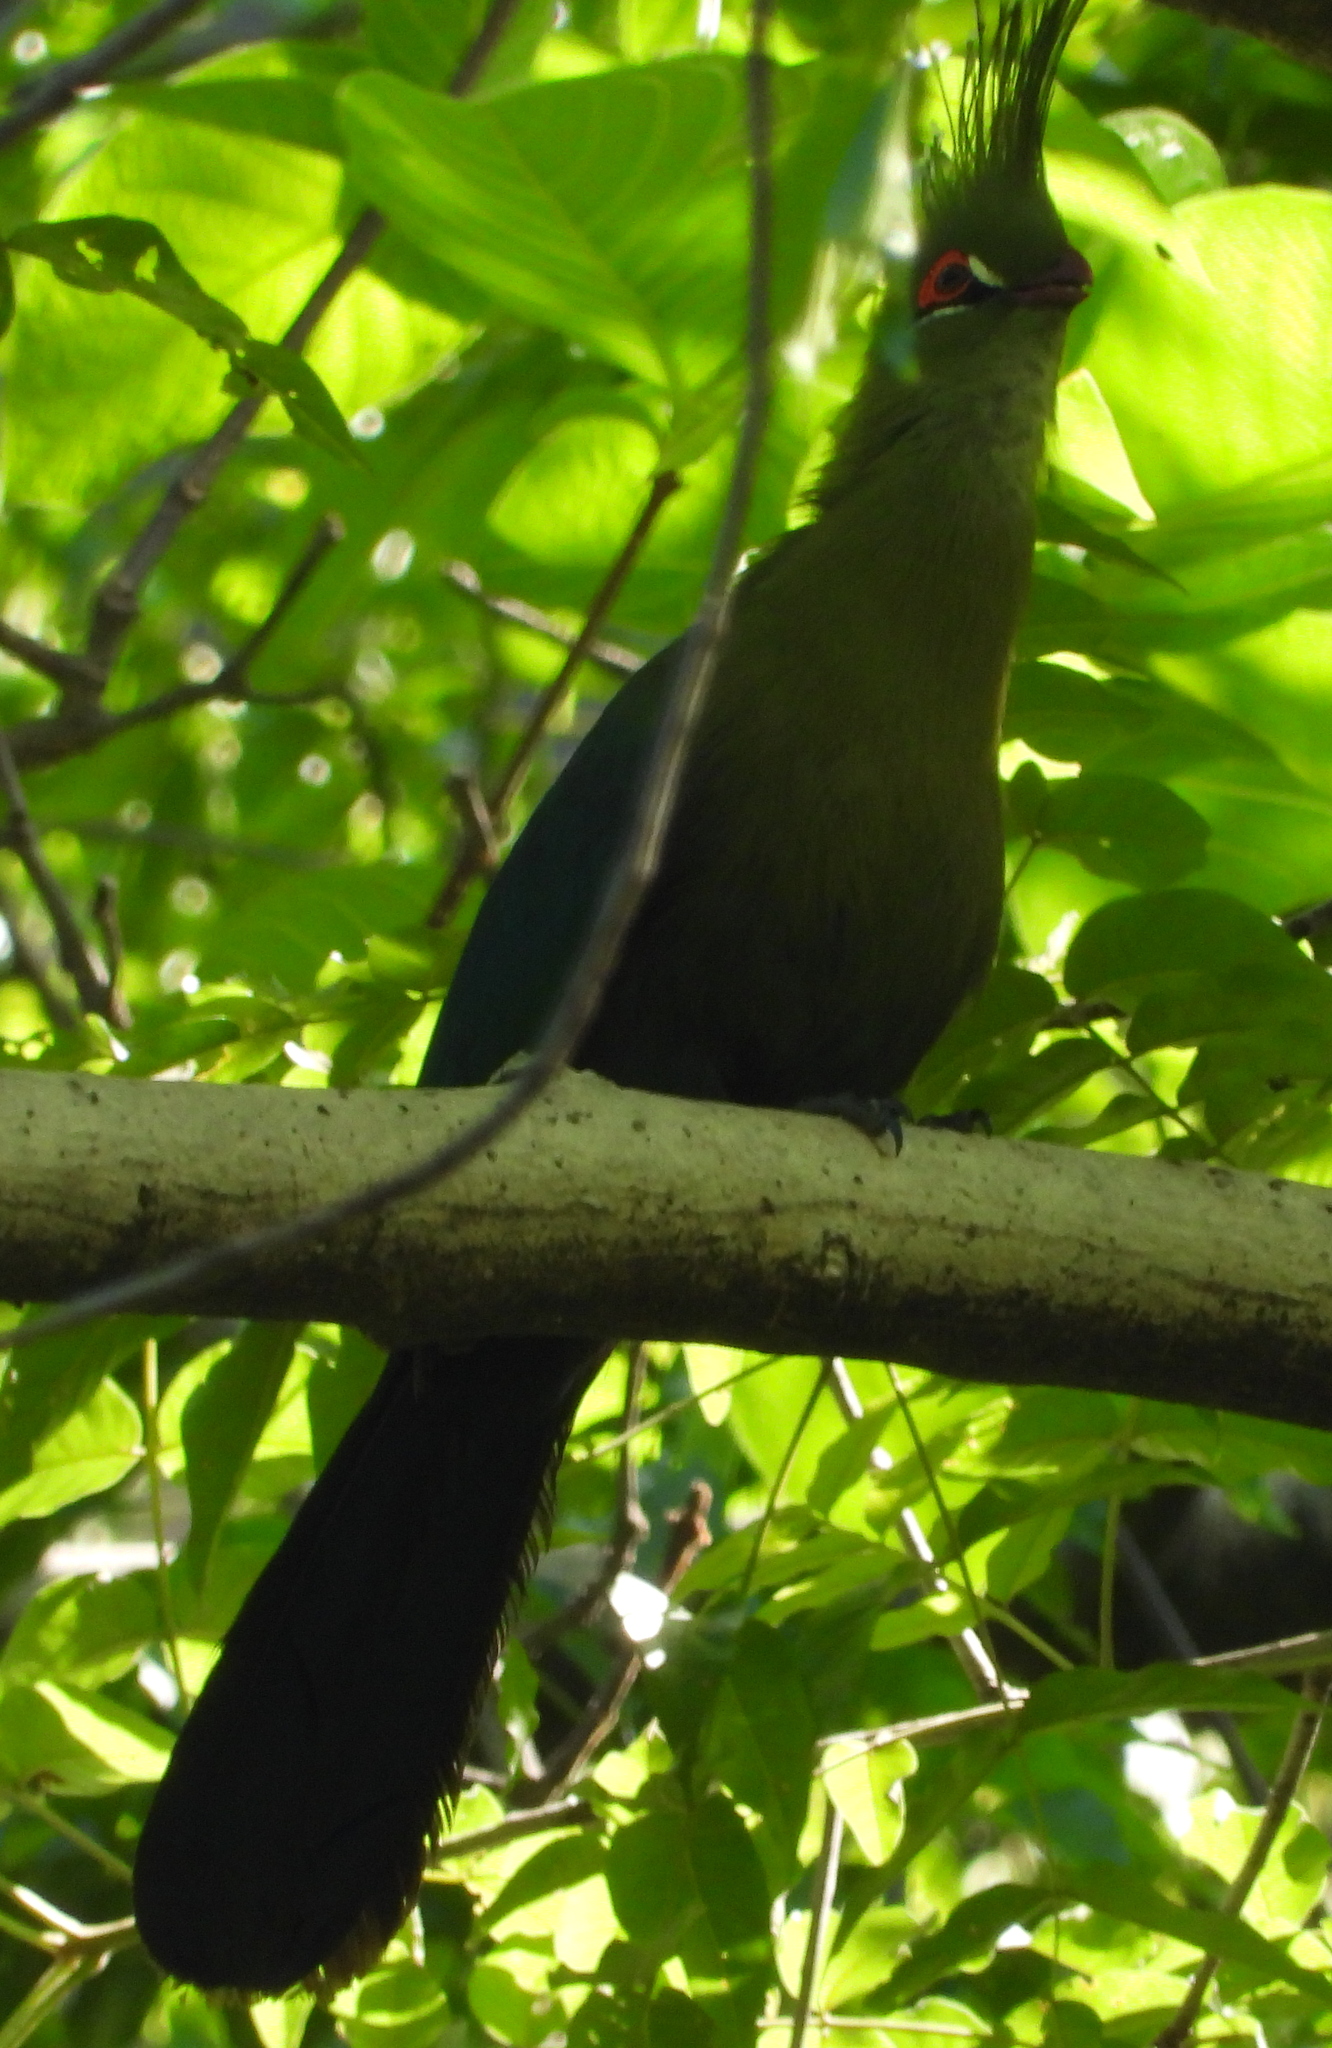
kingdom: Animalia
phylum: Chordata
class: Aves
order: Musophagiformes
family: Musophagidae
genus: Tauraco
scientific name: Tauraco schalowi
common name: Schalow's turaco
